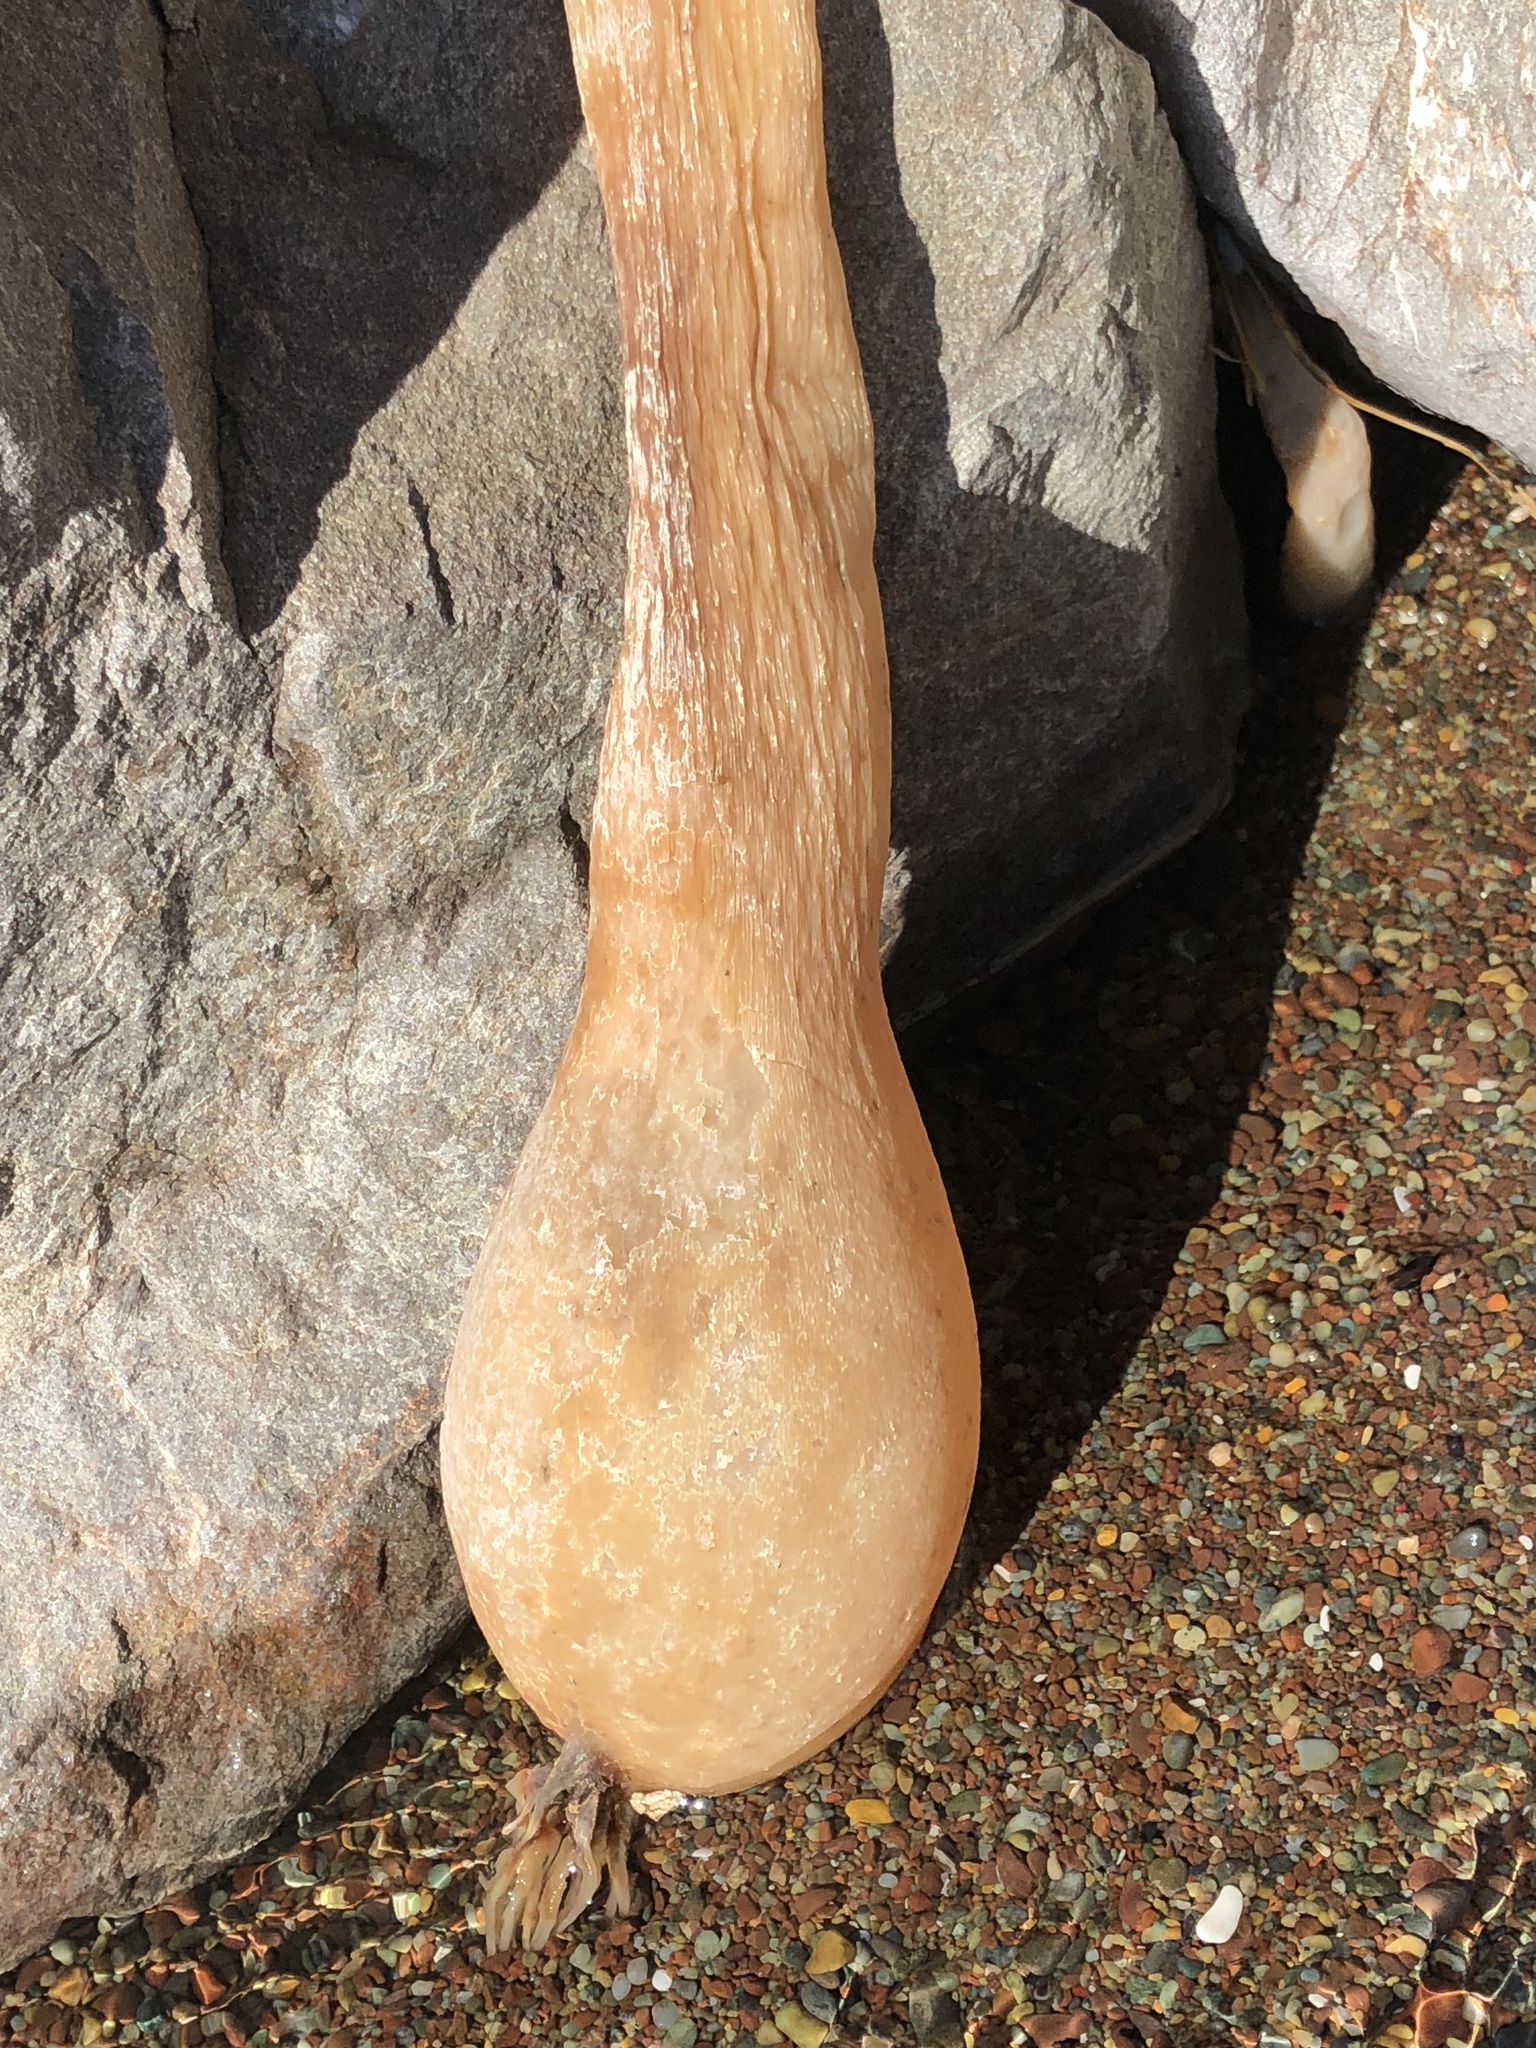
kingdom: Chromista
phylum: Ochrophyta
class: Phaeophyceae
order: Laminariales
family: Laminariaceae
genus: Nereocystis
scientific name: Nereocystis luetkeana
